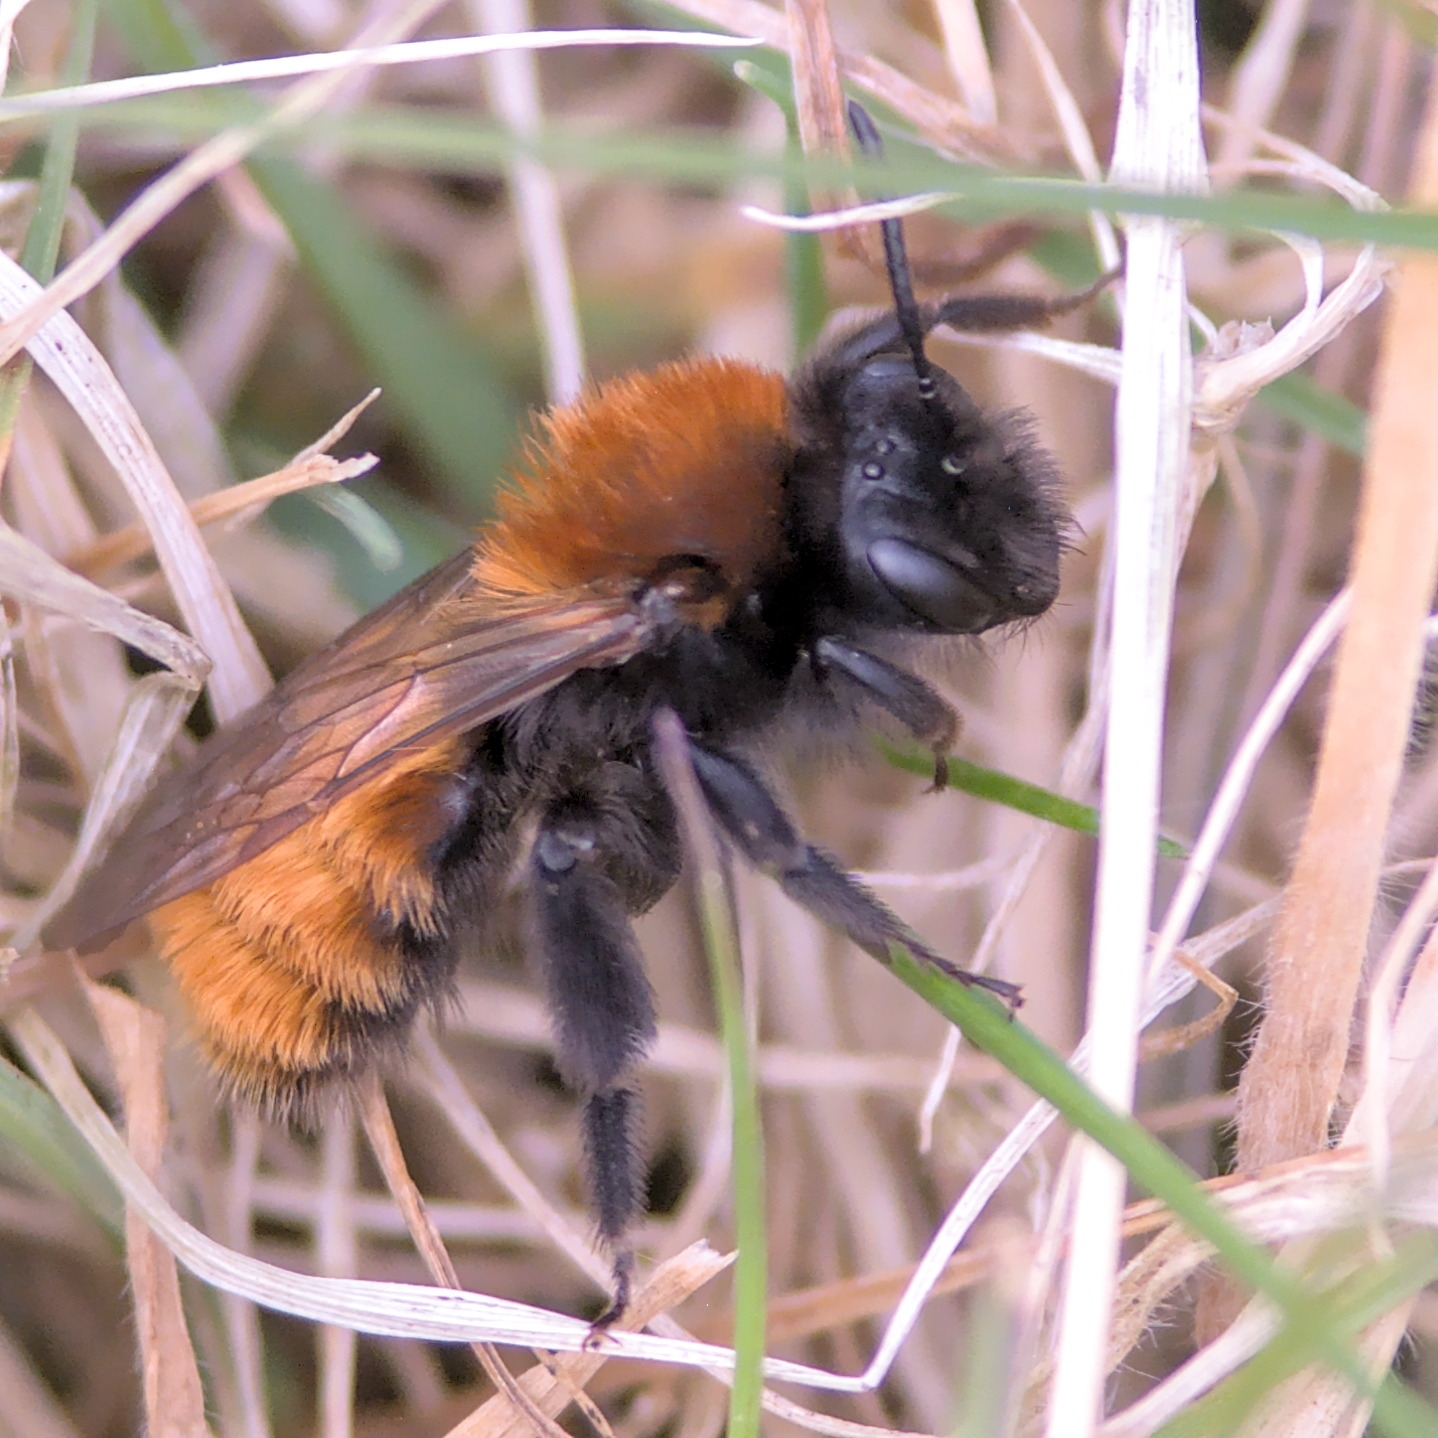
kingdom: Animalia
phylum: Arthropoda
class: Insecta
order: Hymenoptera
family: Andrenidae
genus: Andrena
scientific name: Andrena fulva
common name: Tawny mining bee
